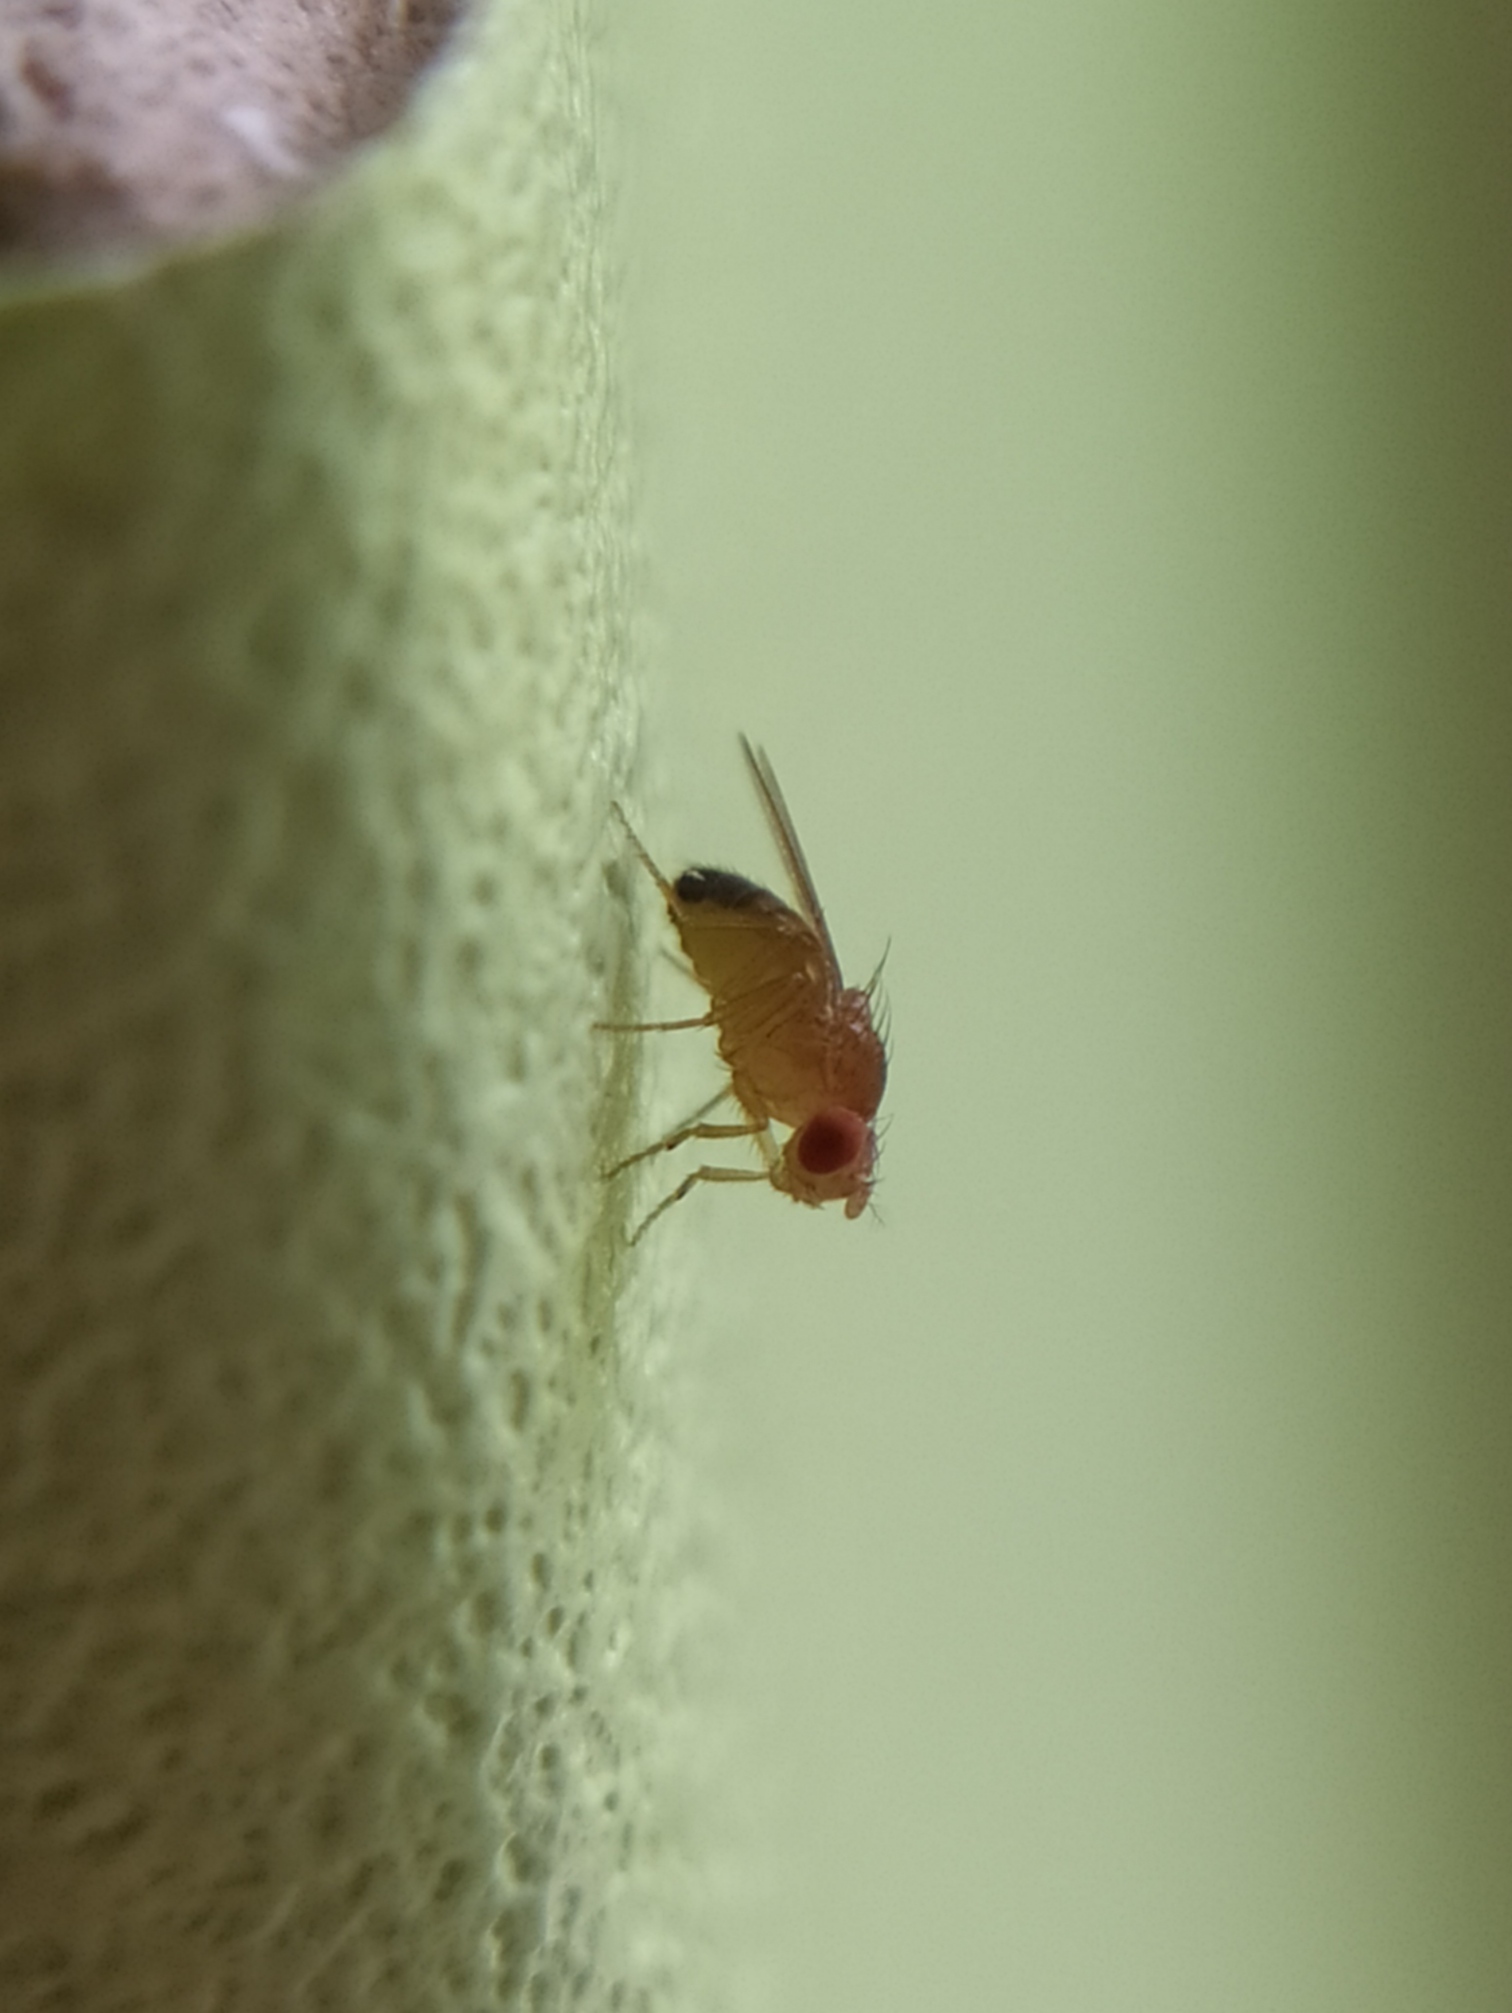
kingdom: Animalia
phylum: Arthropoda
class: Insecta
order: Diptera
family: Drosophilidae
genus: Drosophila
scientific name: Drosophila melanogaster
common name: Pomace fly
